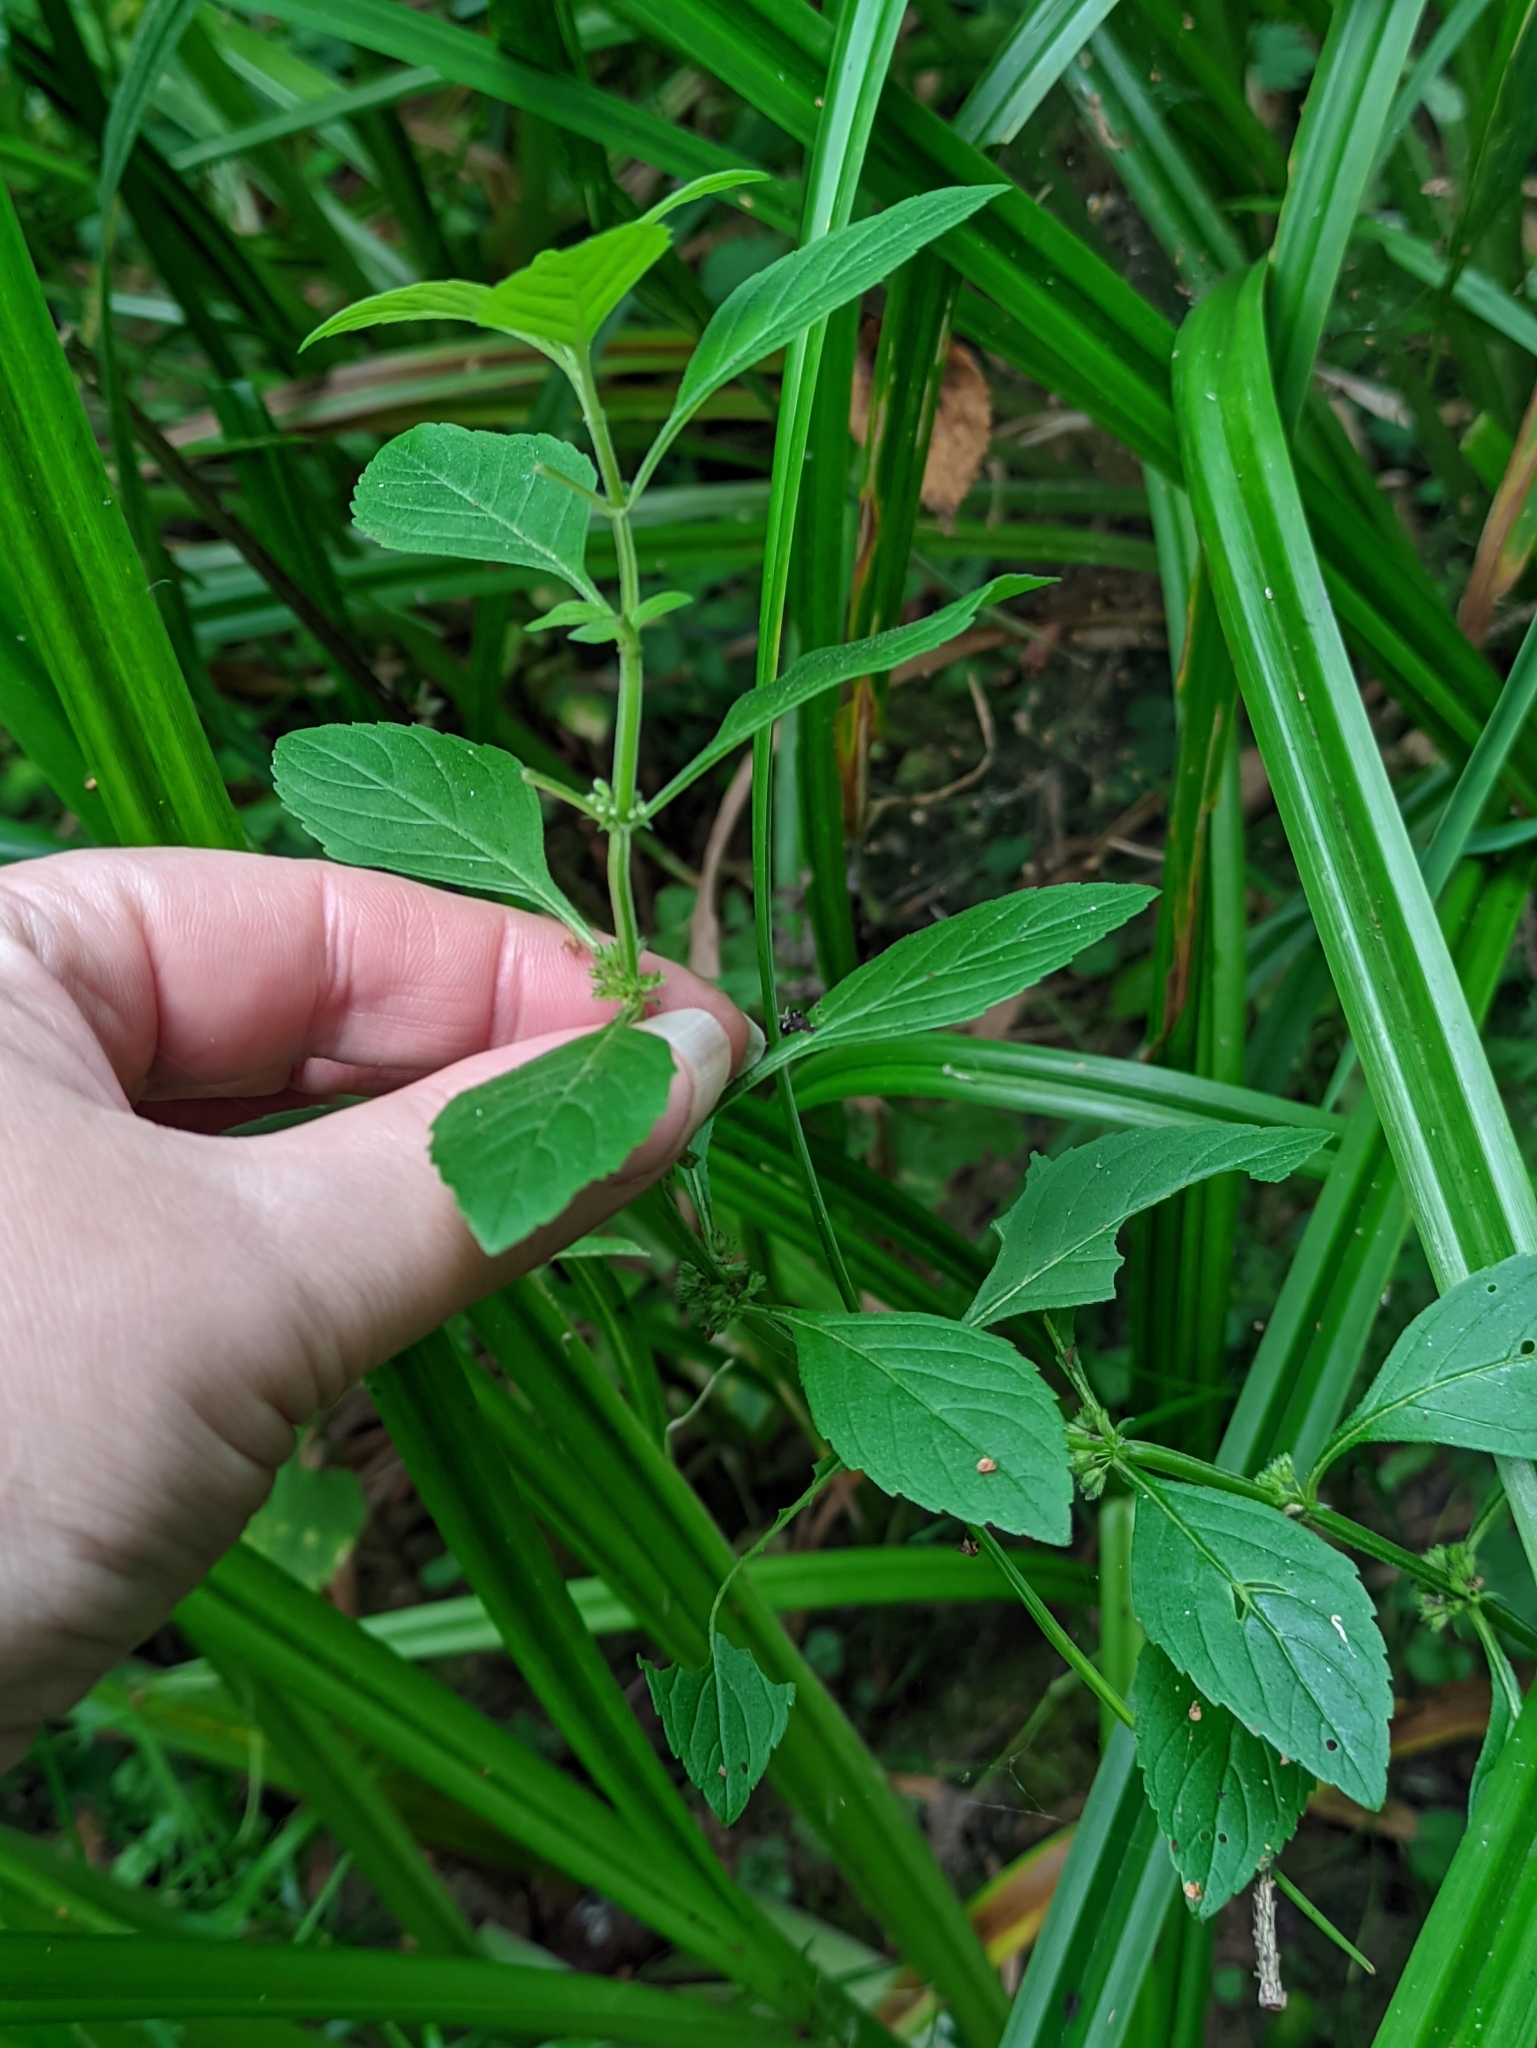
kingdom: Plantae
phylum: Tracheophyta
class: Magnoliopsida
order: Lamiales
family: Lamiaceae
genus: Mentha
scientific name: Mentha arvensis
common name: Corn mint
